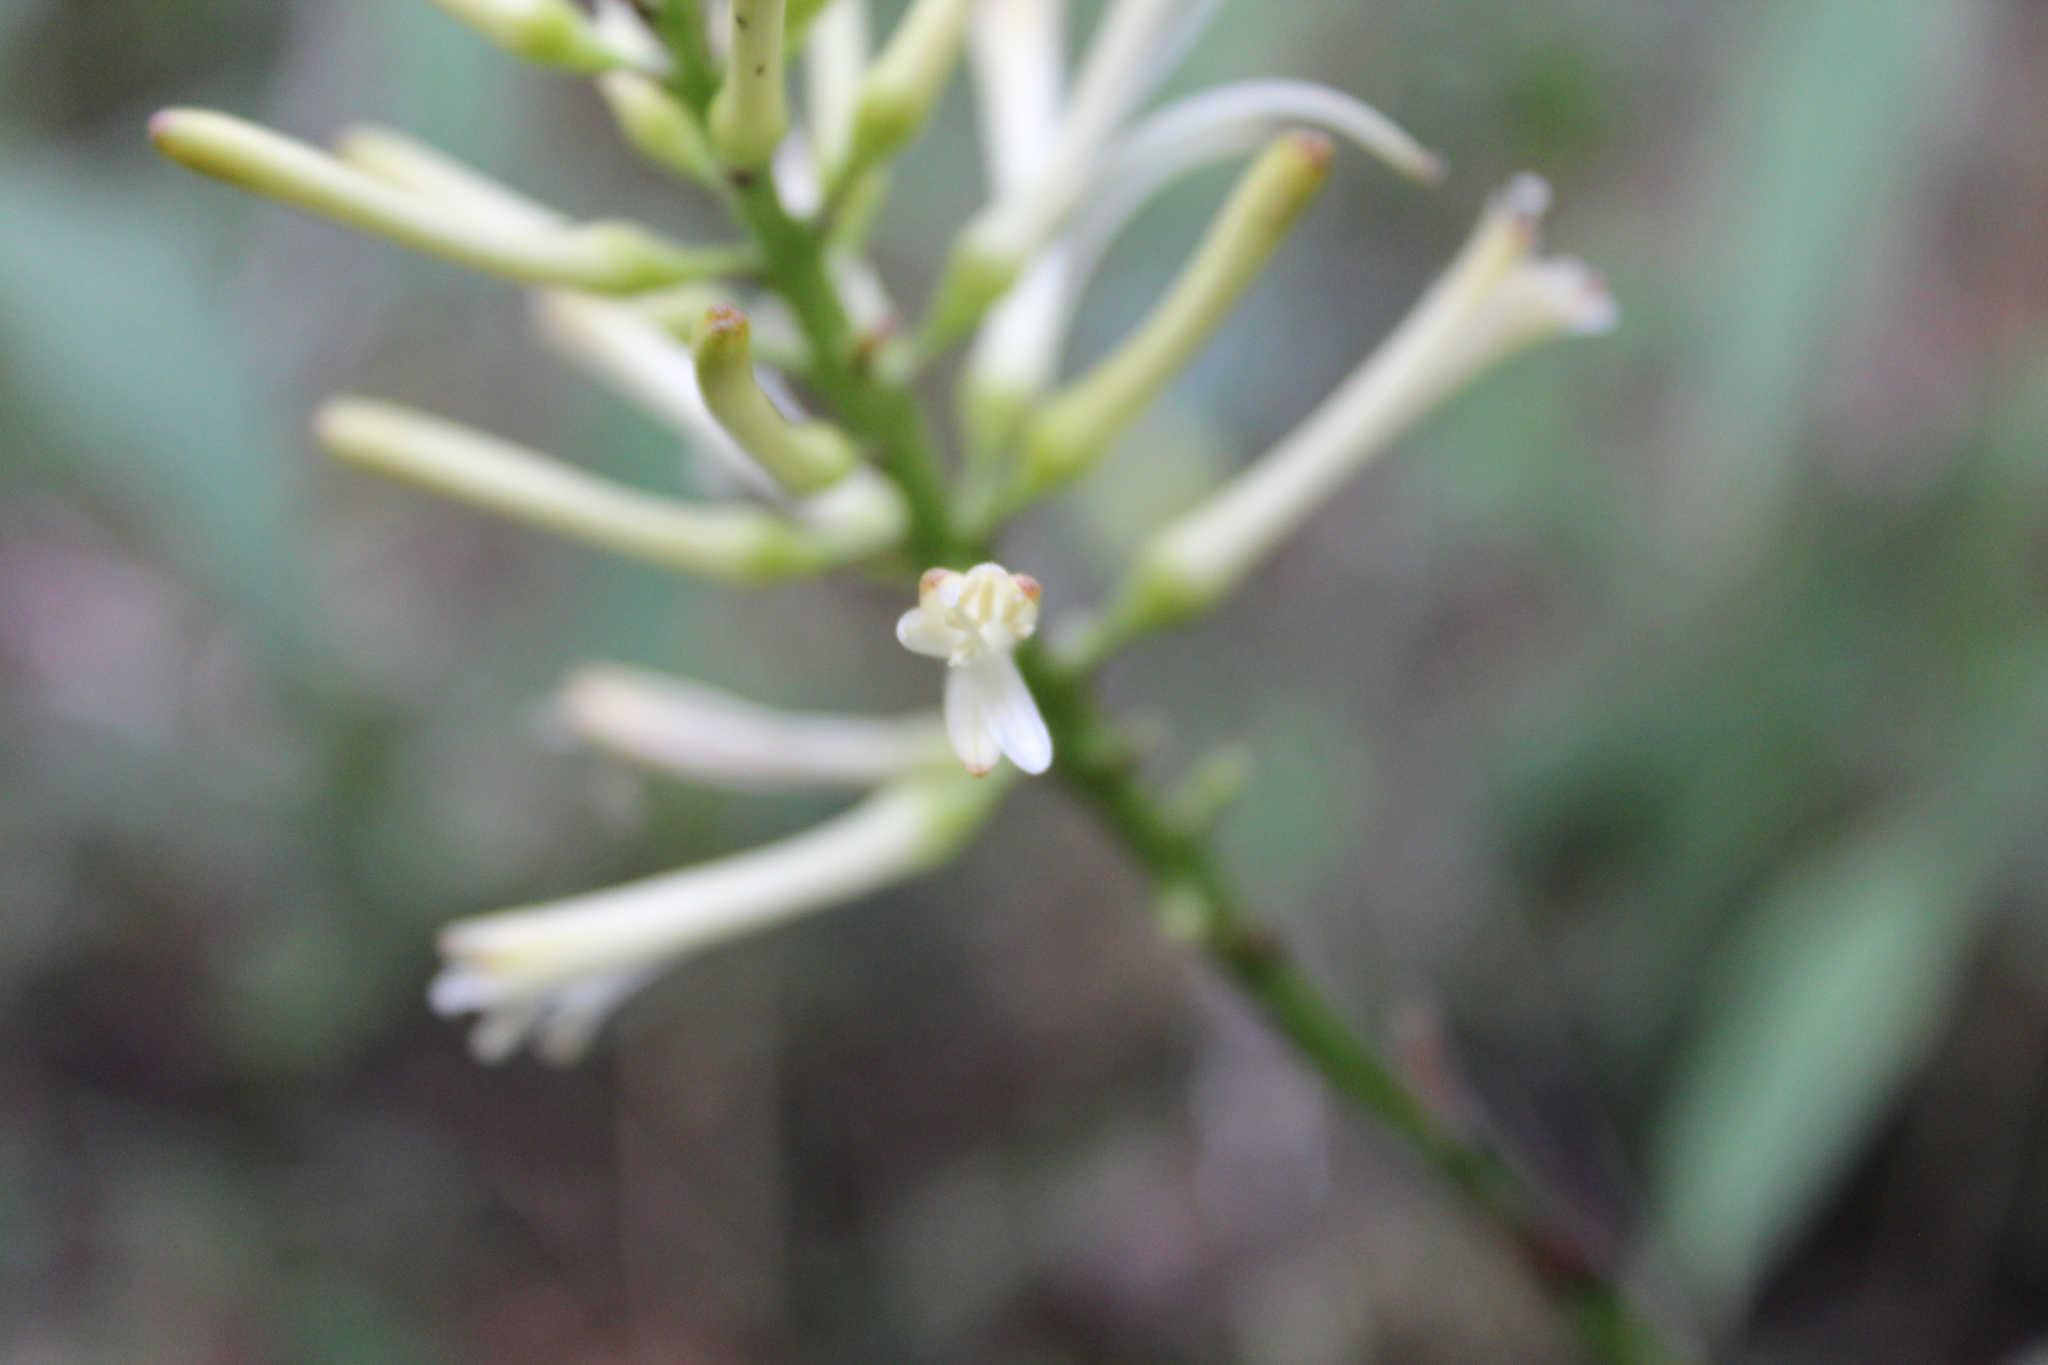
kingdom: Plantae
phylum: Tracheophyta
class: Liliopsida
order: Asparagales
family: Asparagaceae
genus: Dracaena
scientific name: Dracaena reflexa
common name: Song-of-india
